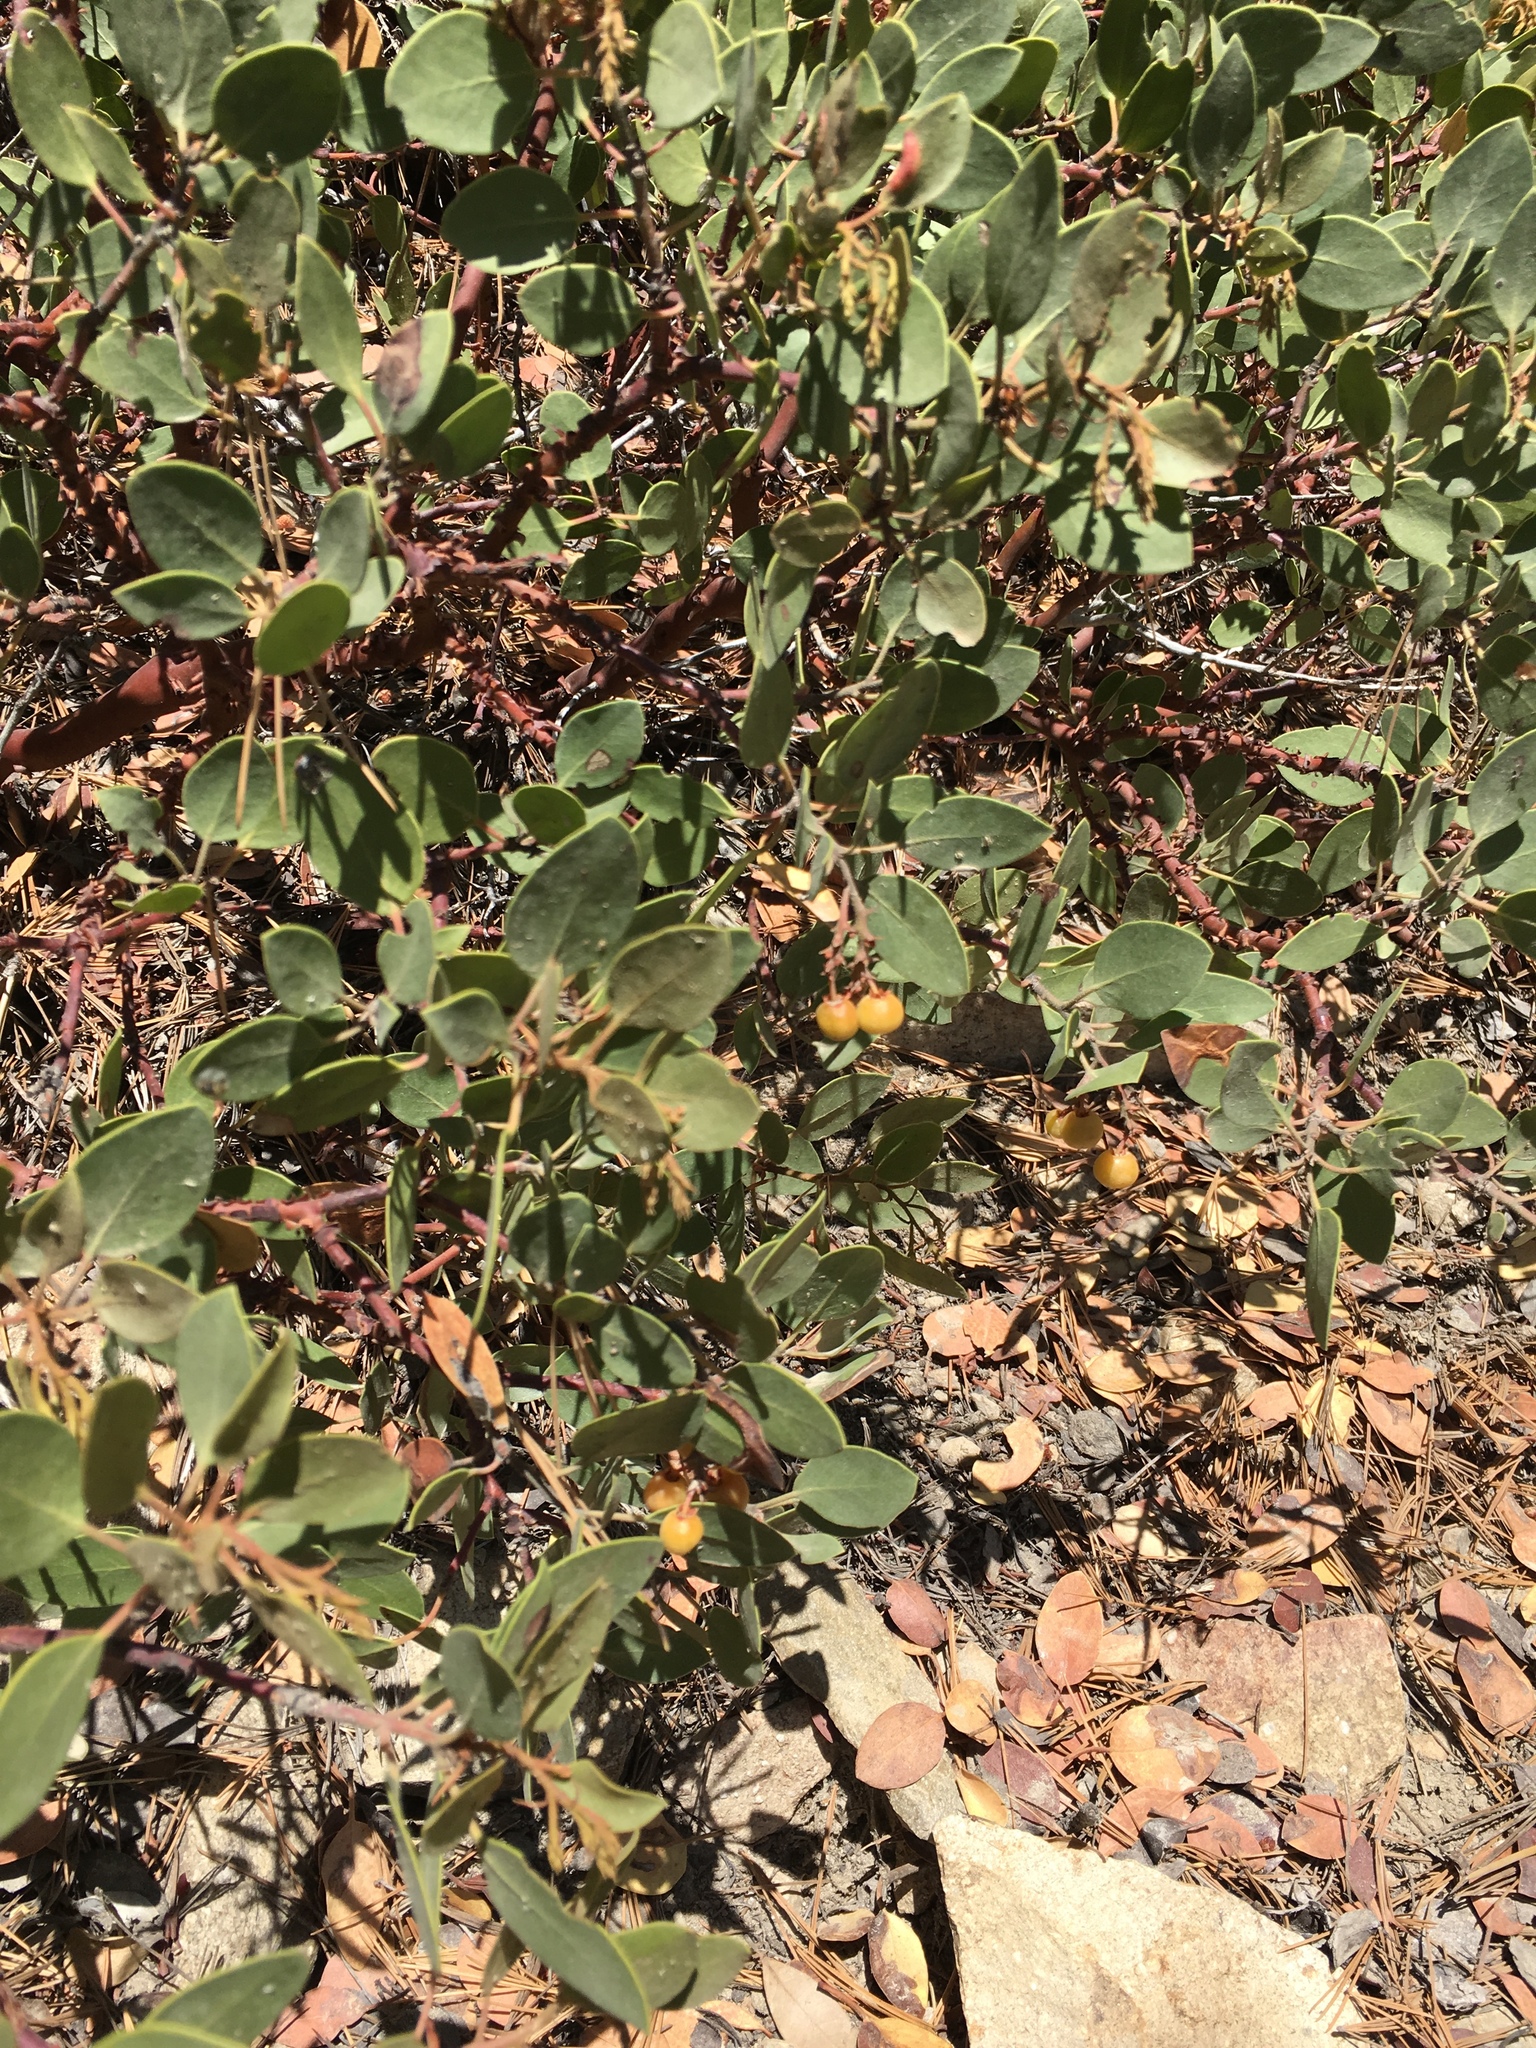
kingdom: Plantae
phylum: Tracheophyta
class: Magnoliopsida
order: Ericales
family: Ericaceae
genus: Arctostaphylos
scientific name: Arctostaphylos parryana
